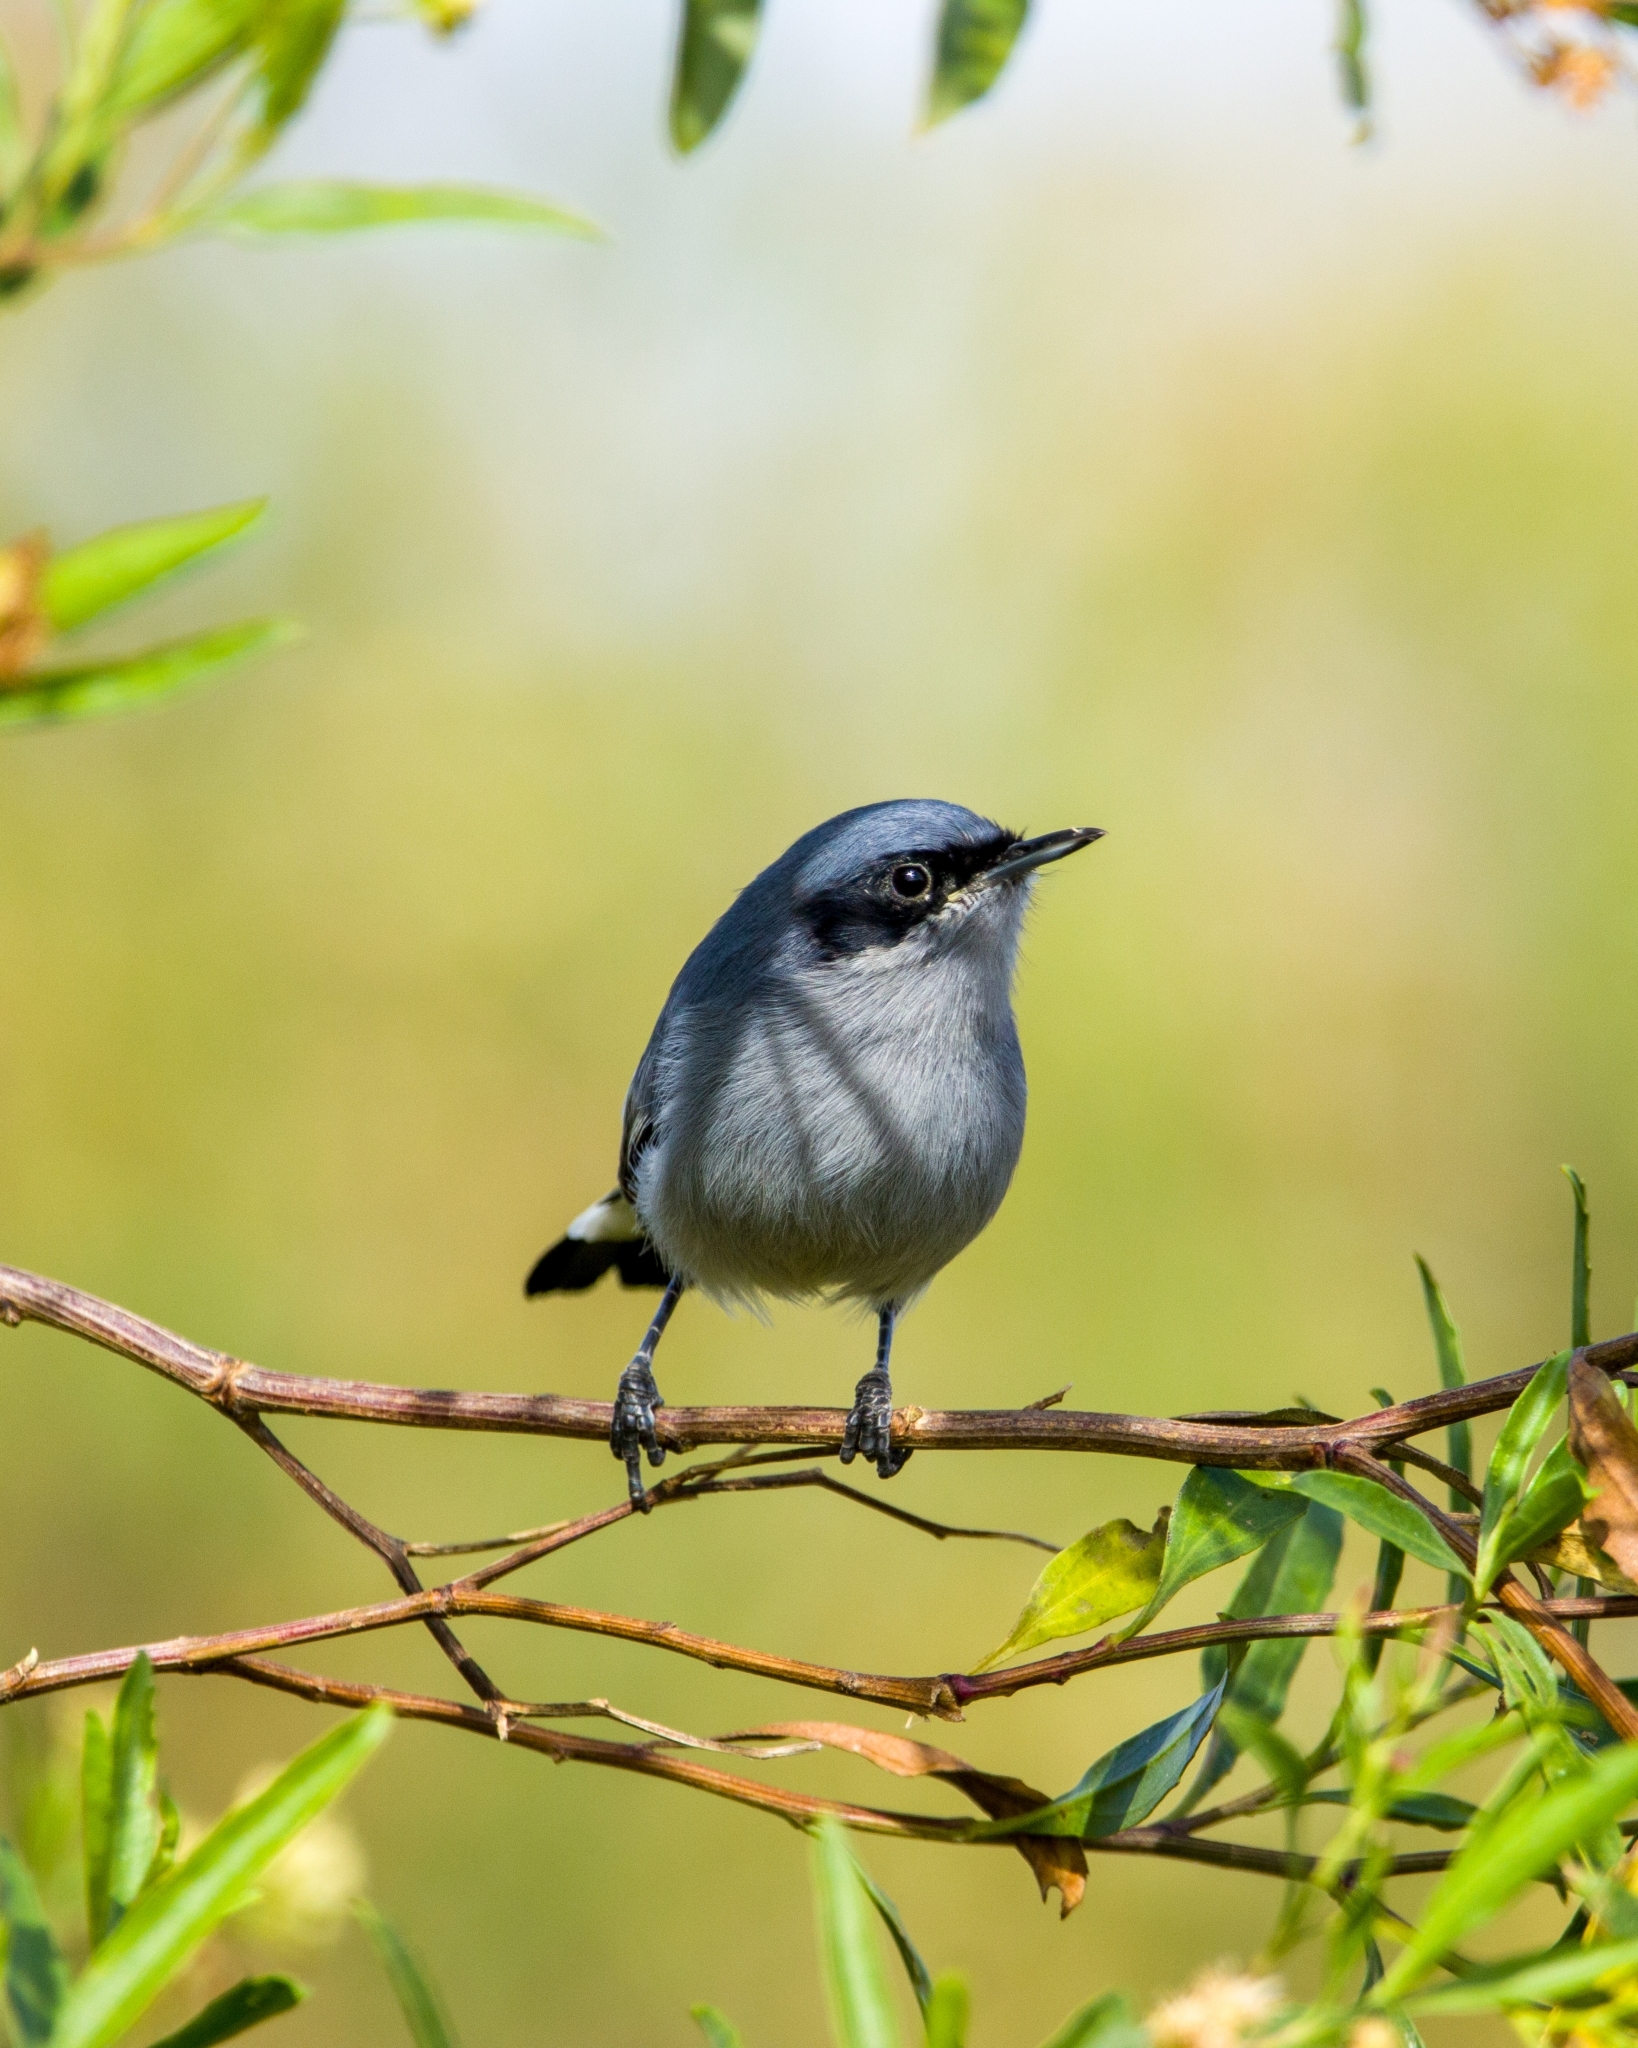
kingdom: Animalia
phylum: Chordata
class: Aves
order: Passeriformes
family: Polioptilidae
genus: Polioptila
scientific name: Polioptila dumicola
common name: Masked gnatcatcher
